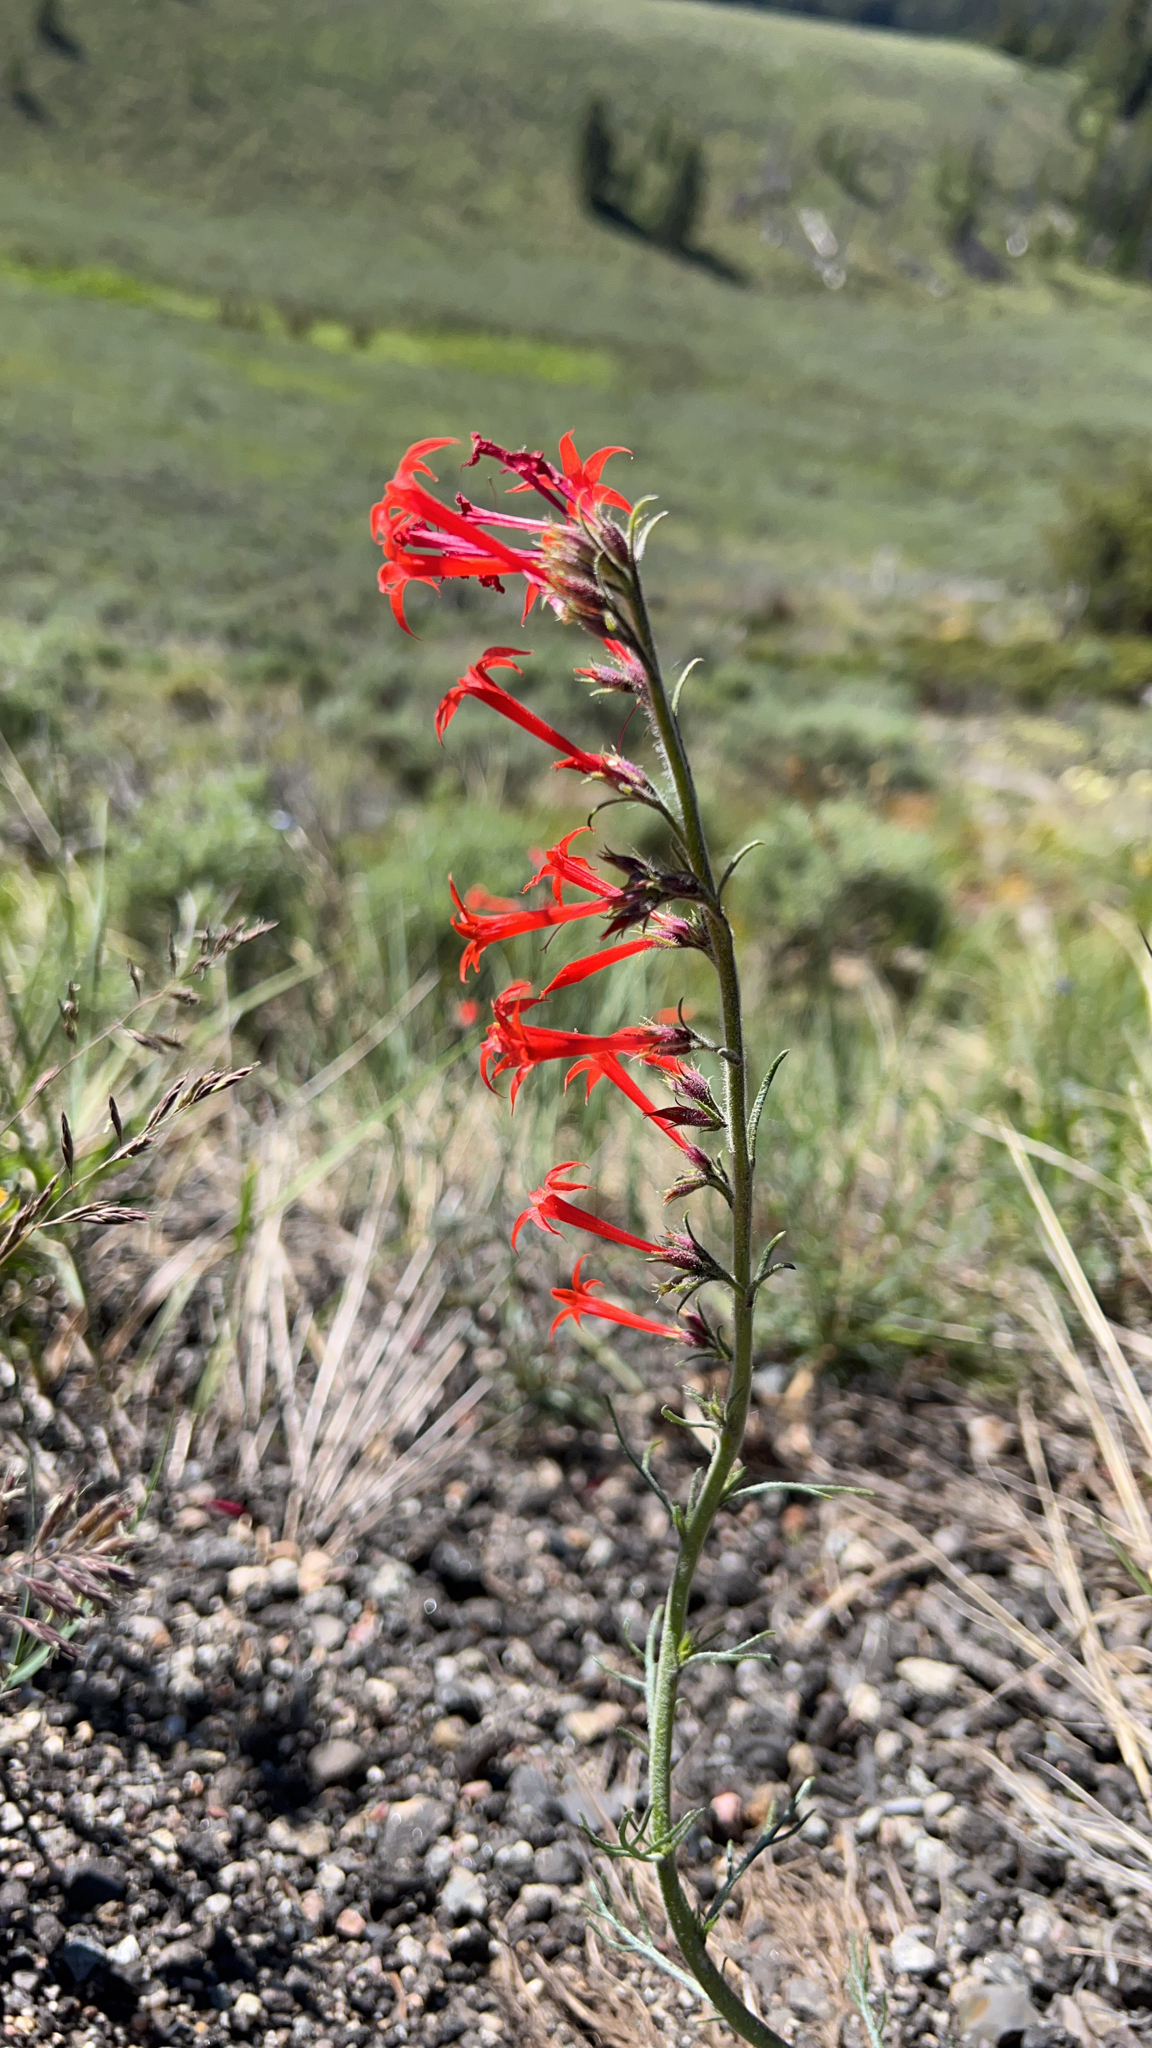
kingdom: Plantae
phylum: Tracheophyta
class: Magnoliopsida
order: Ericales
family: Polemoniaceae
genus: Ipomopsis
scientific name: Ipomopsis aggregata
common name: Scarlet gilia
